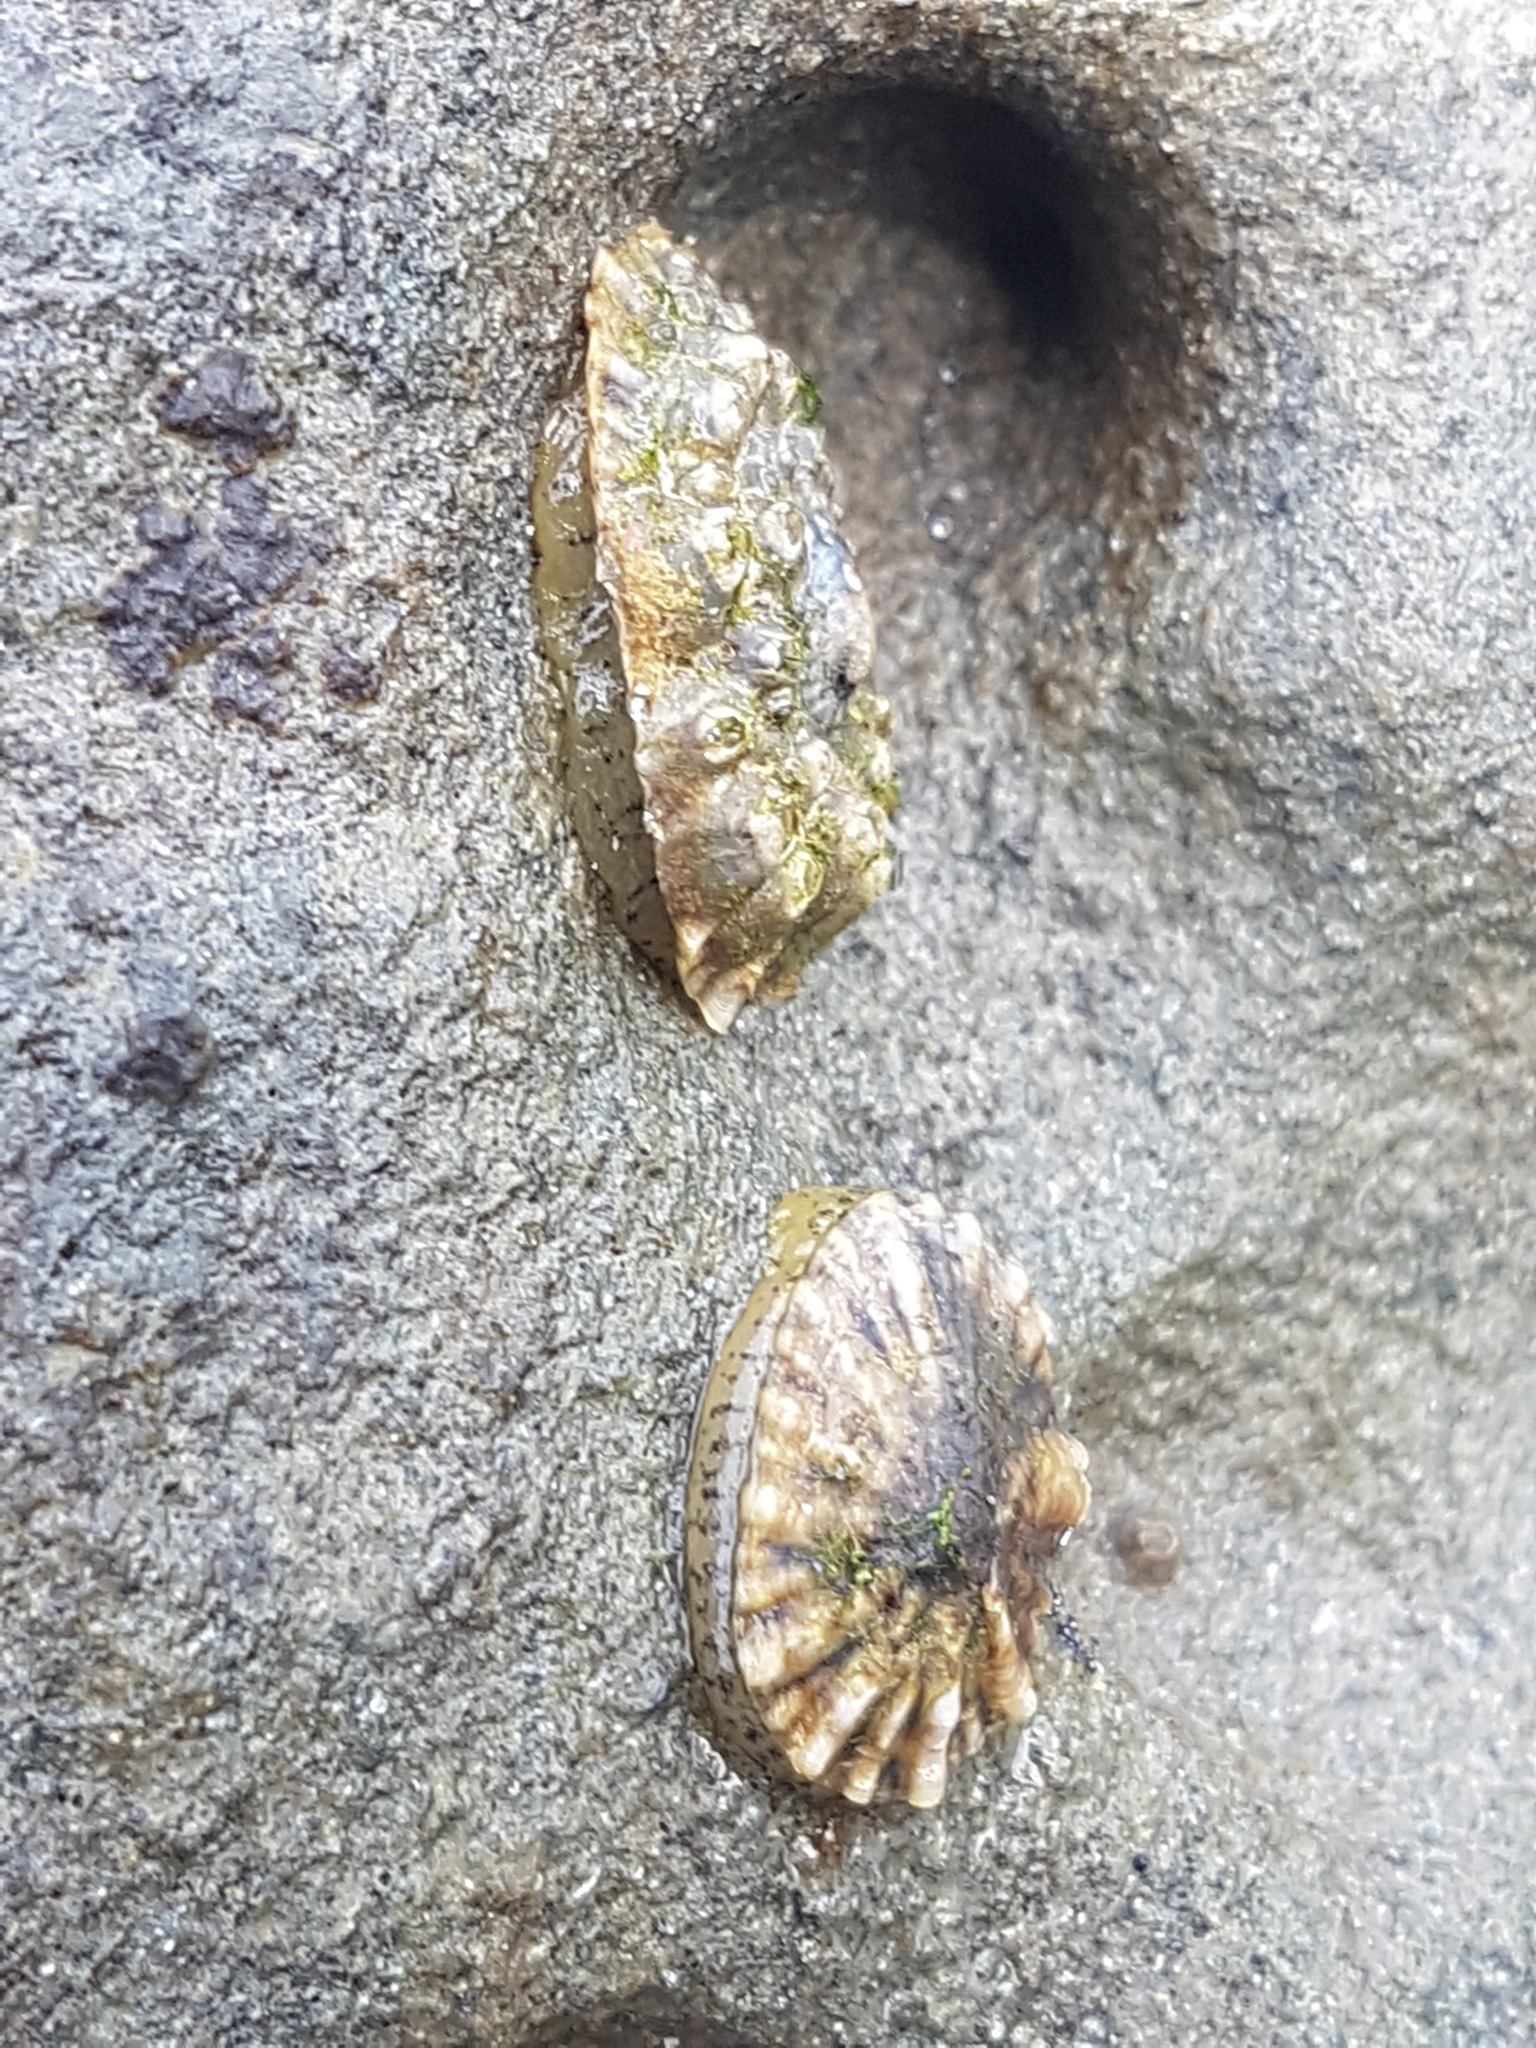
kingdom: Animalia
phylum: Mollusca
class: Gastropoda
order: Siphonariida
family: Siphonariidae
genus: Siphonaria
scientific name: Siphonaria australis
